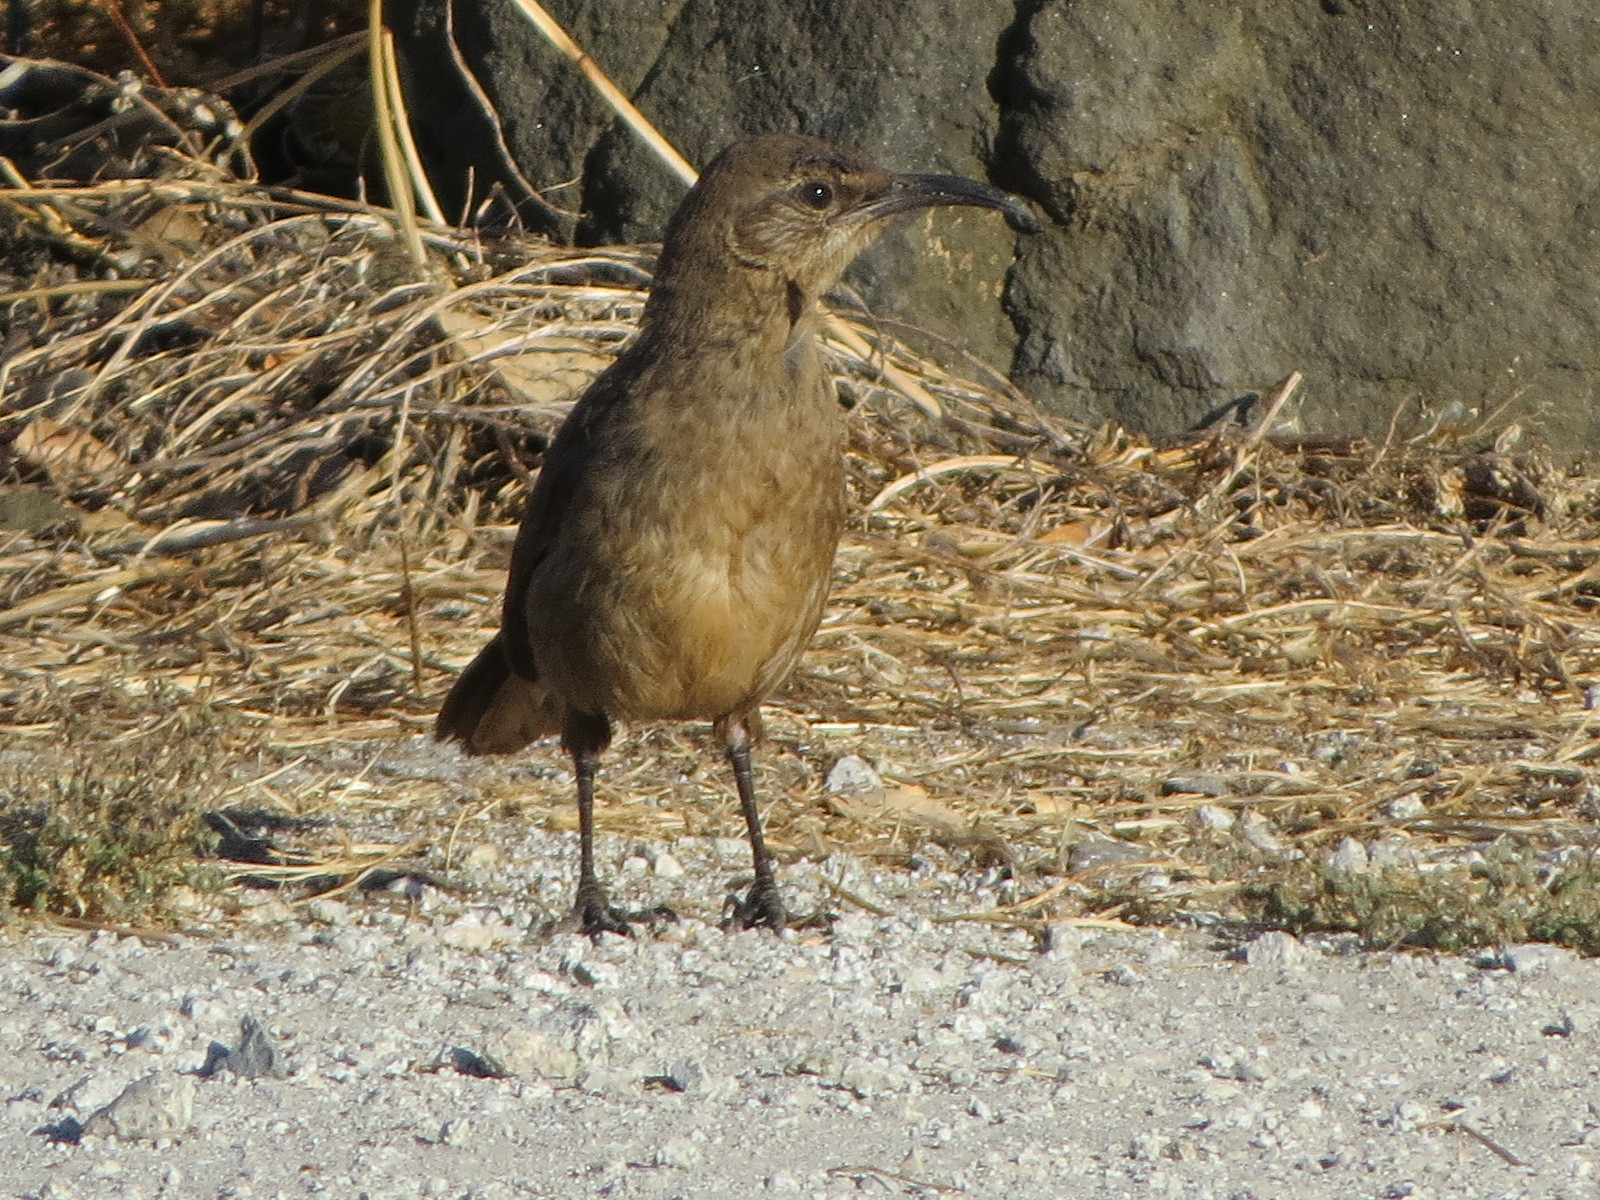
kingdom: Animalia
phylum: Chordata
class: Aves
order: Passeriformes
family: Mimidae
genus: Toxostoma
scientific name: Toxostoma redivivum
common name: California thrasher
